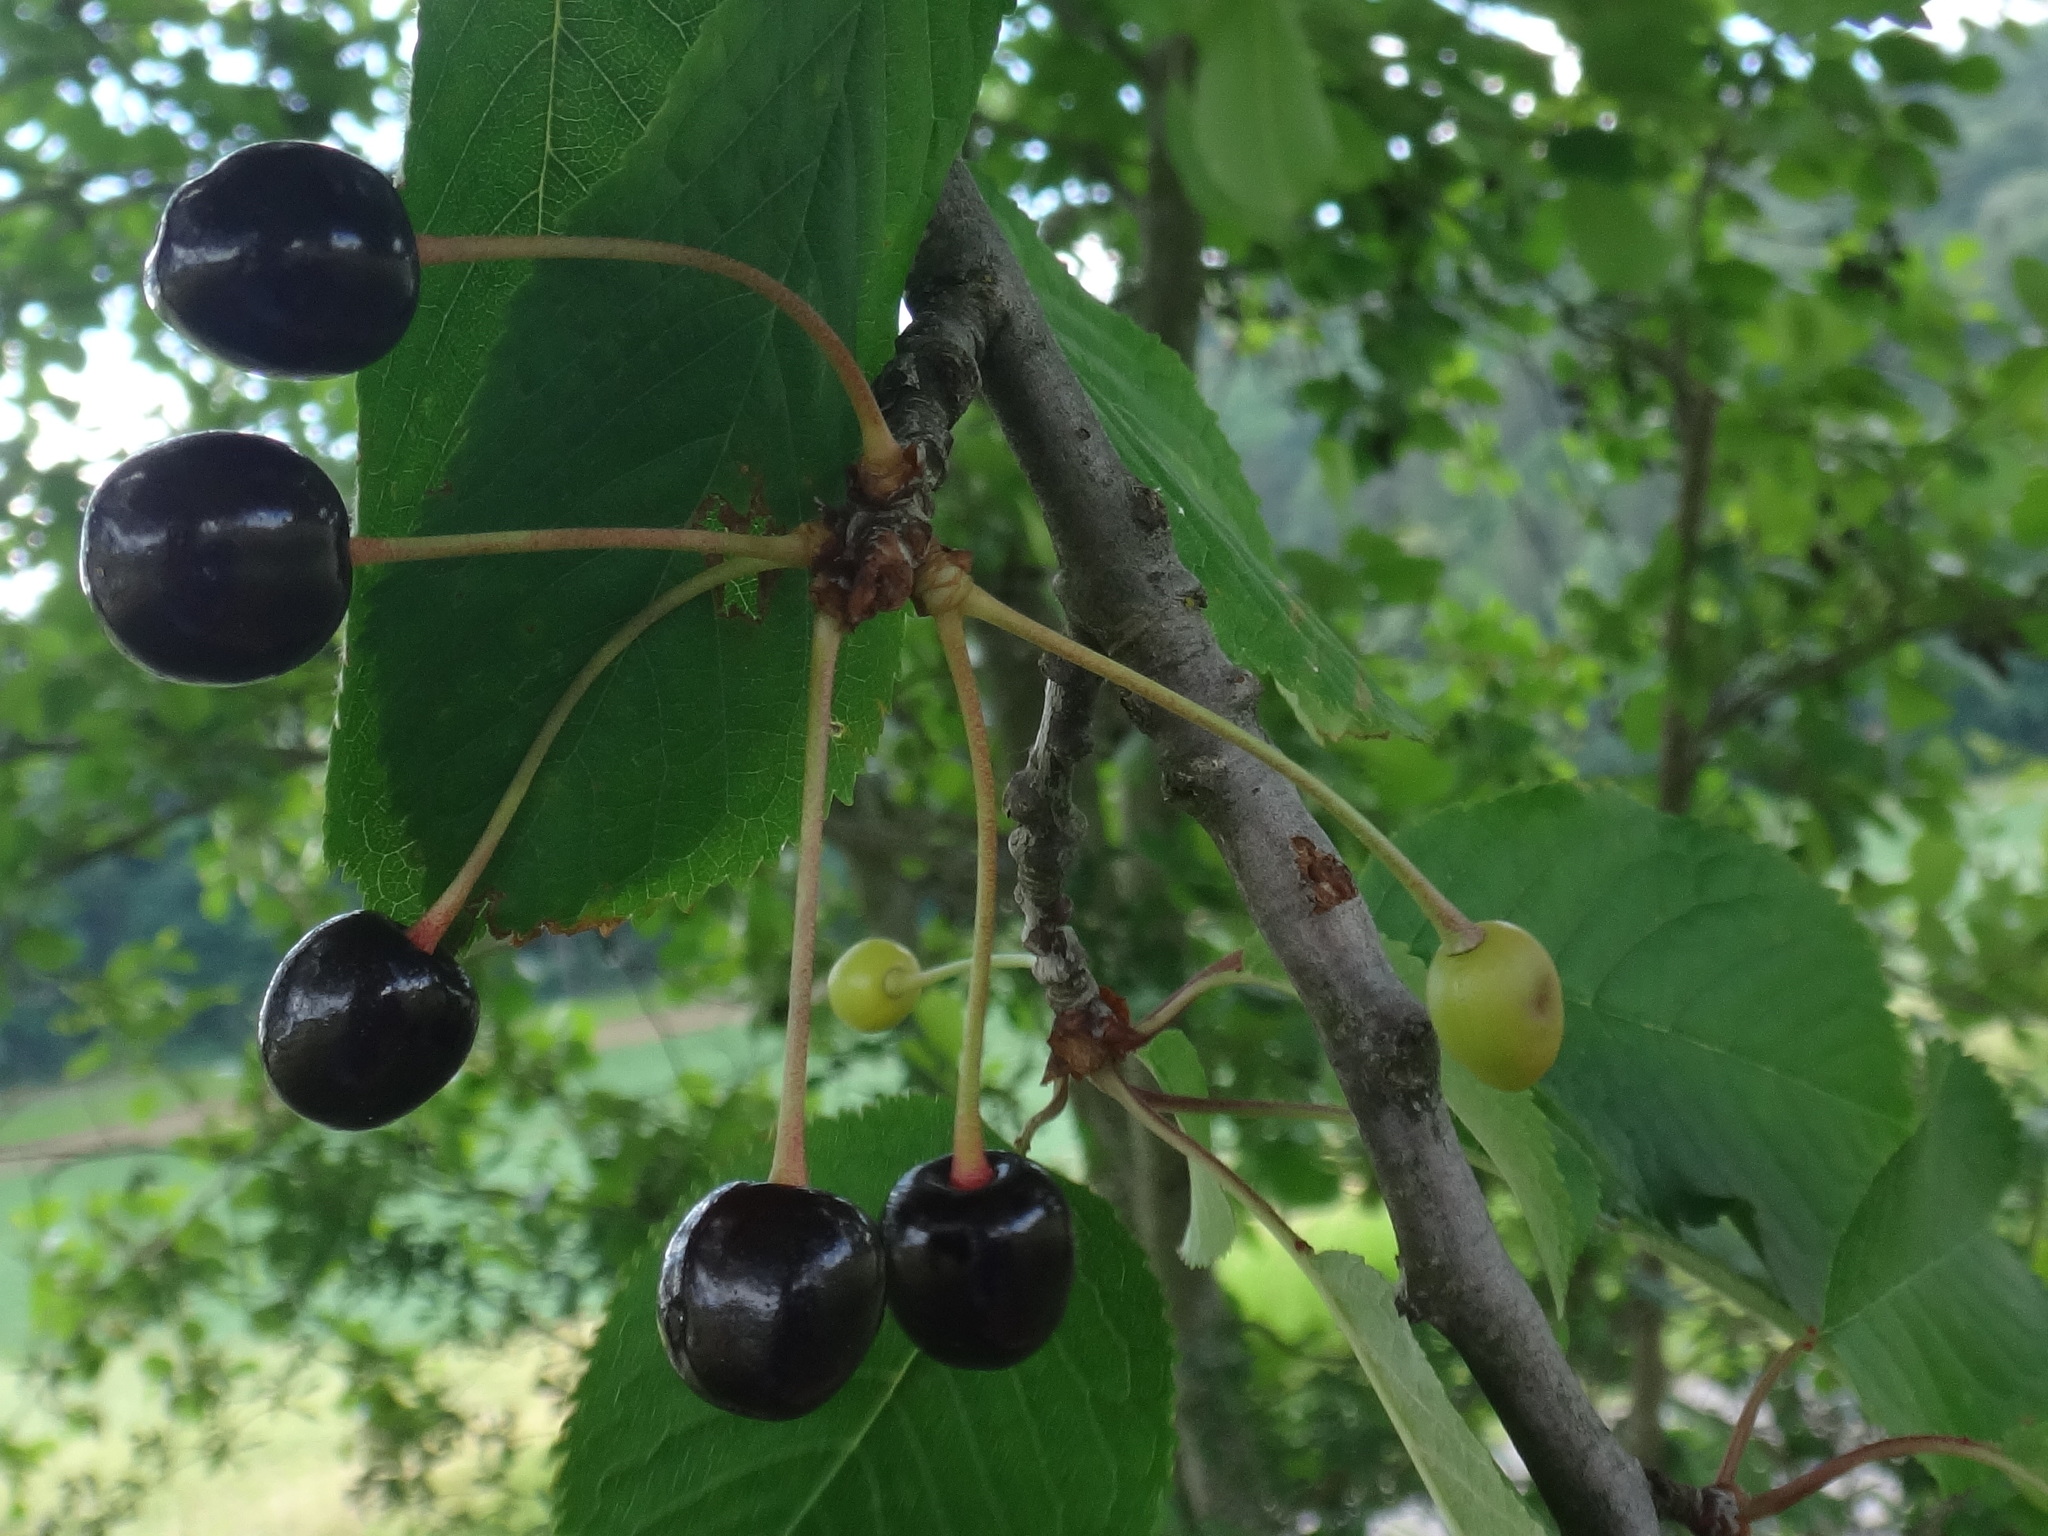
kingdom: Plantae
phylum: Tracheophyta
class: Magnoliopsida
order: Rosales
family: Rosaceae
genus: Prunus
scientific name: Prunus avium
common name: Sweet cherry
